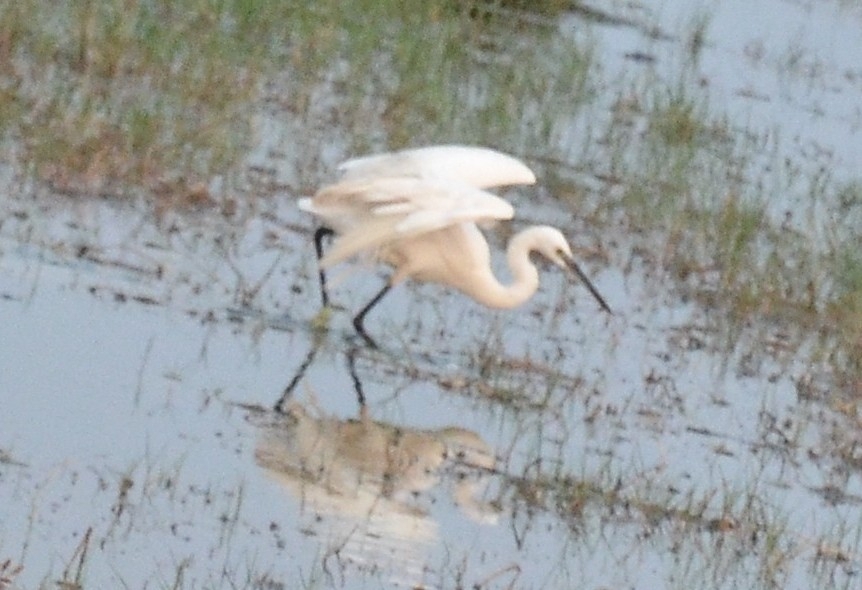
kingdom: Animalia
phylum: Chordata
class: Aves
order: Pelecaniformes
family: Ardeidae
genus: Egretta
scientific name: Egretta garzetta
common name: Little egret
